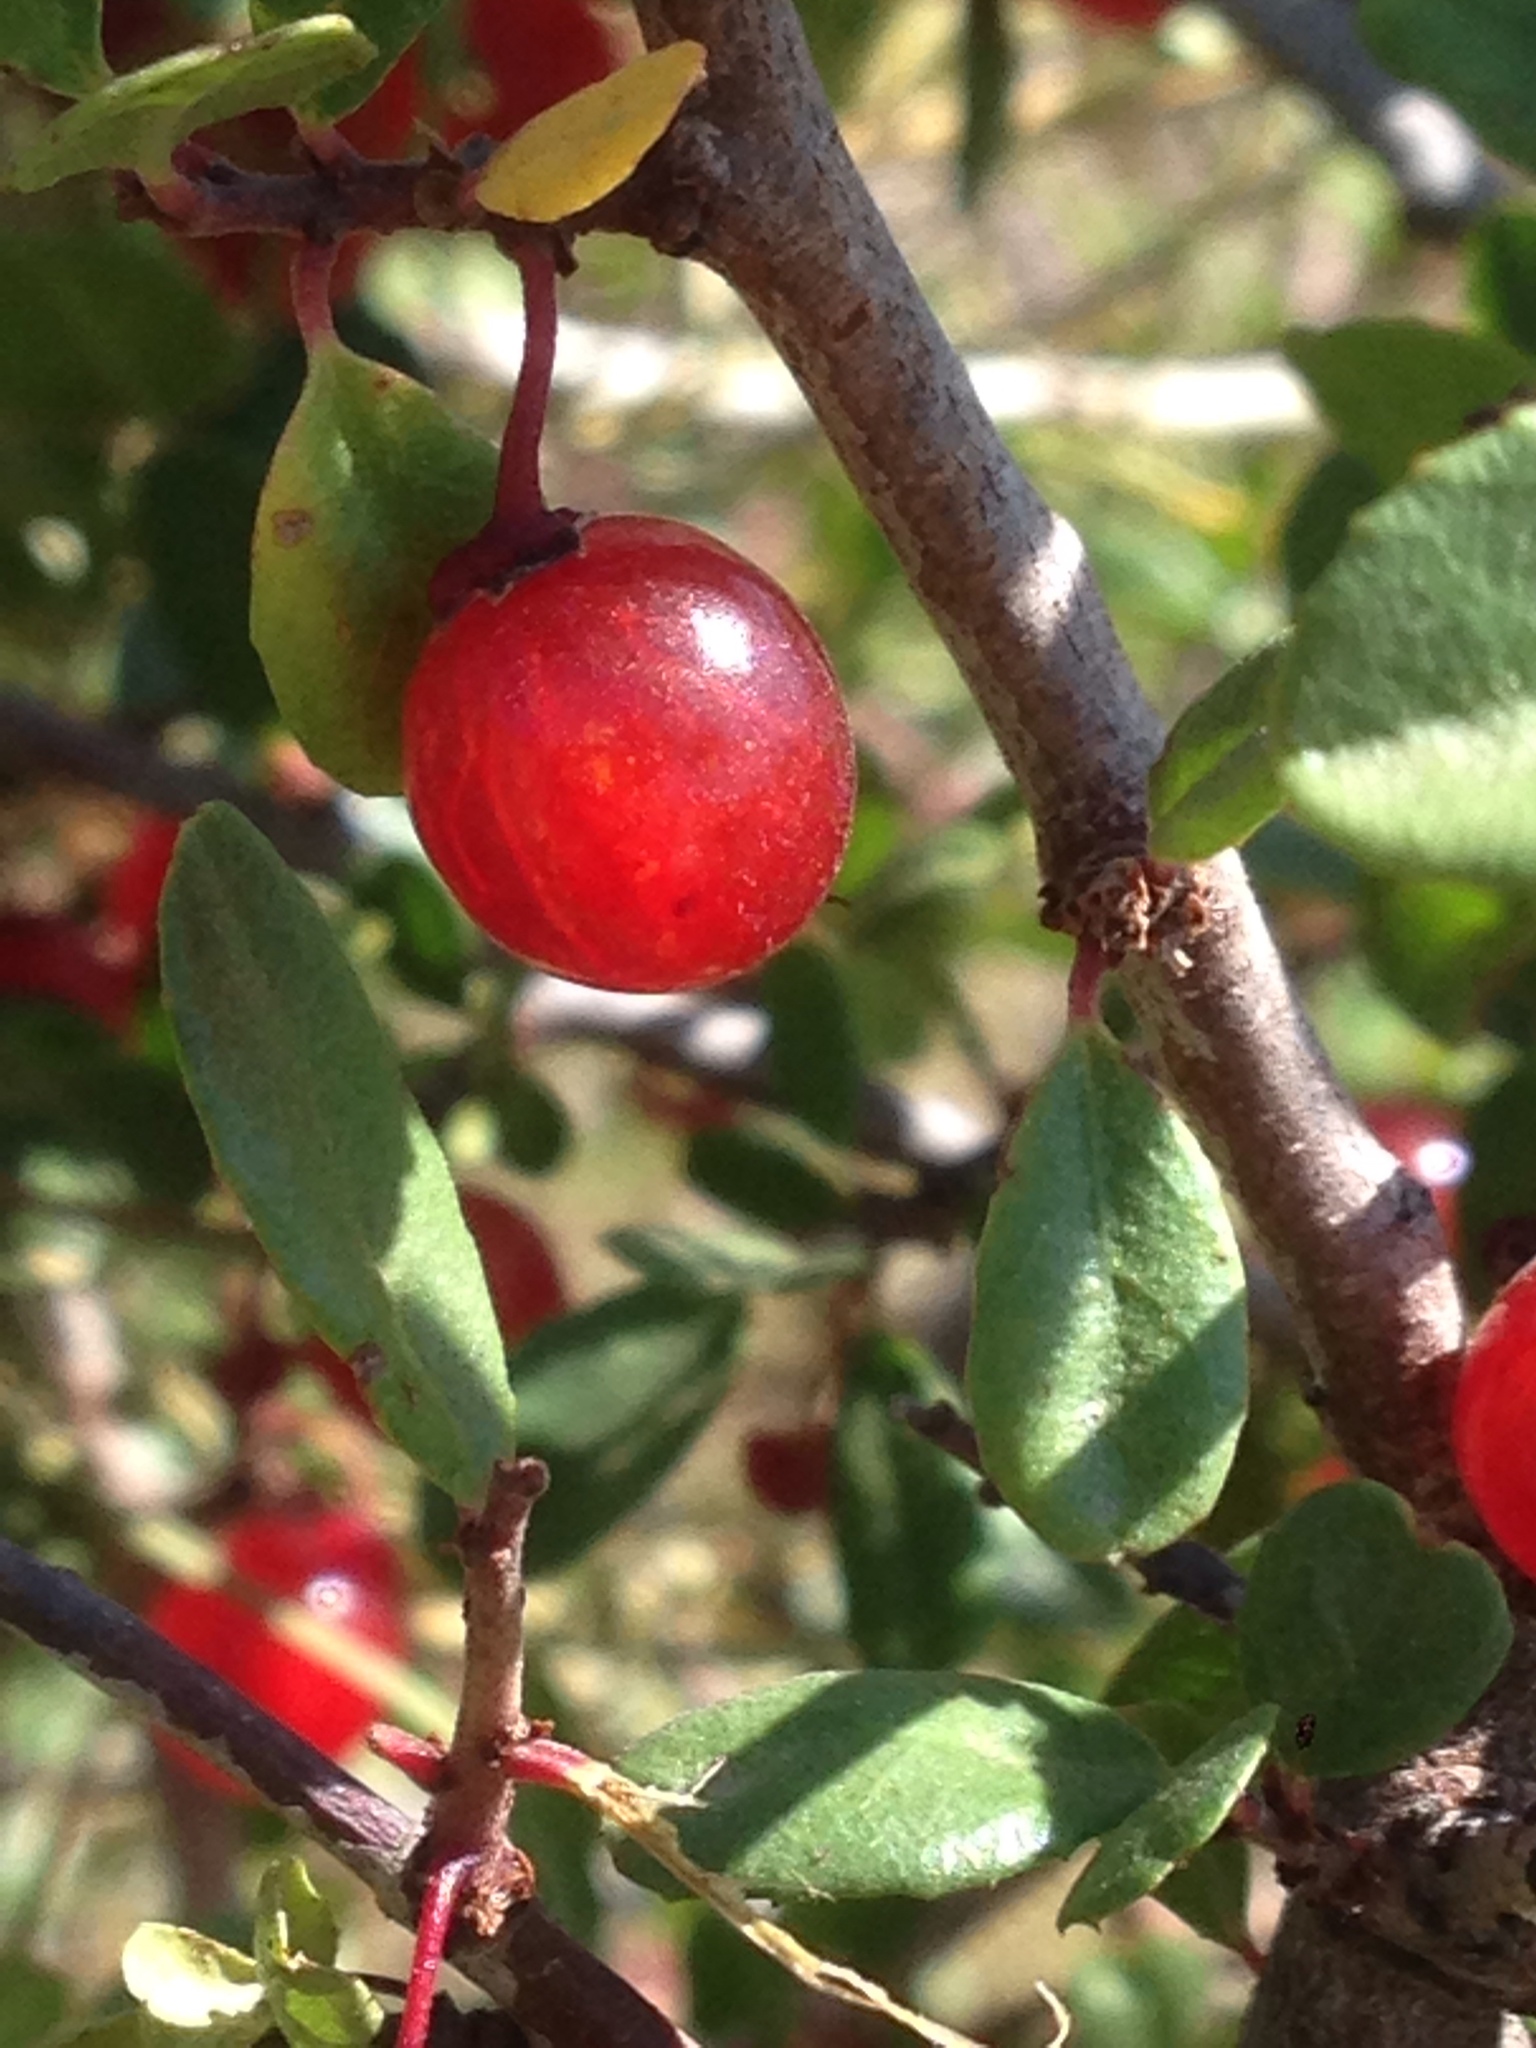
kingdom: Plantae
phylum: Tracheophyta
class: Magnoliopsida
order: Rosales
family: Rhamnaceae
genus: Endotropis
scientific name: Endotropis crocea
